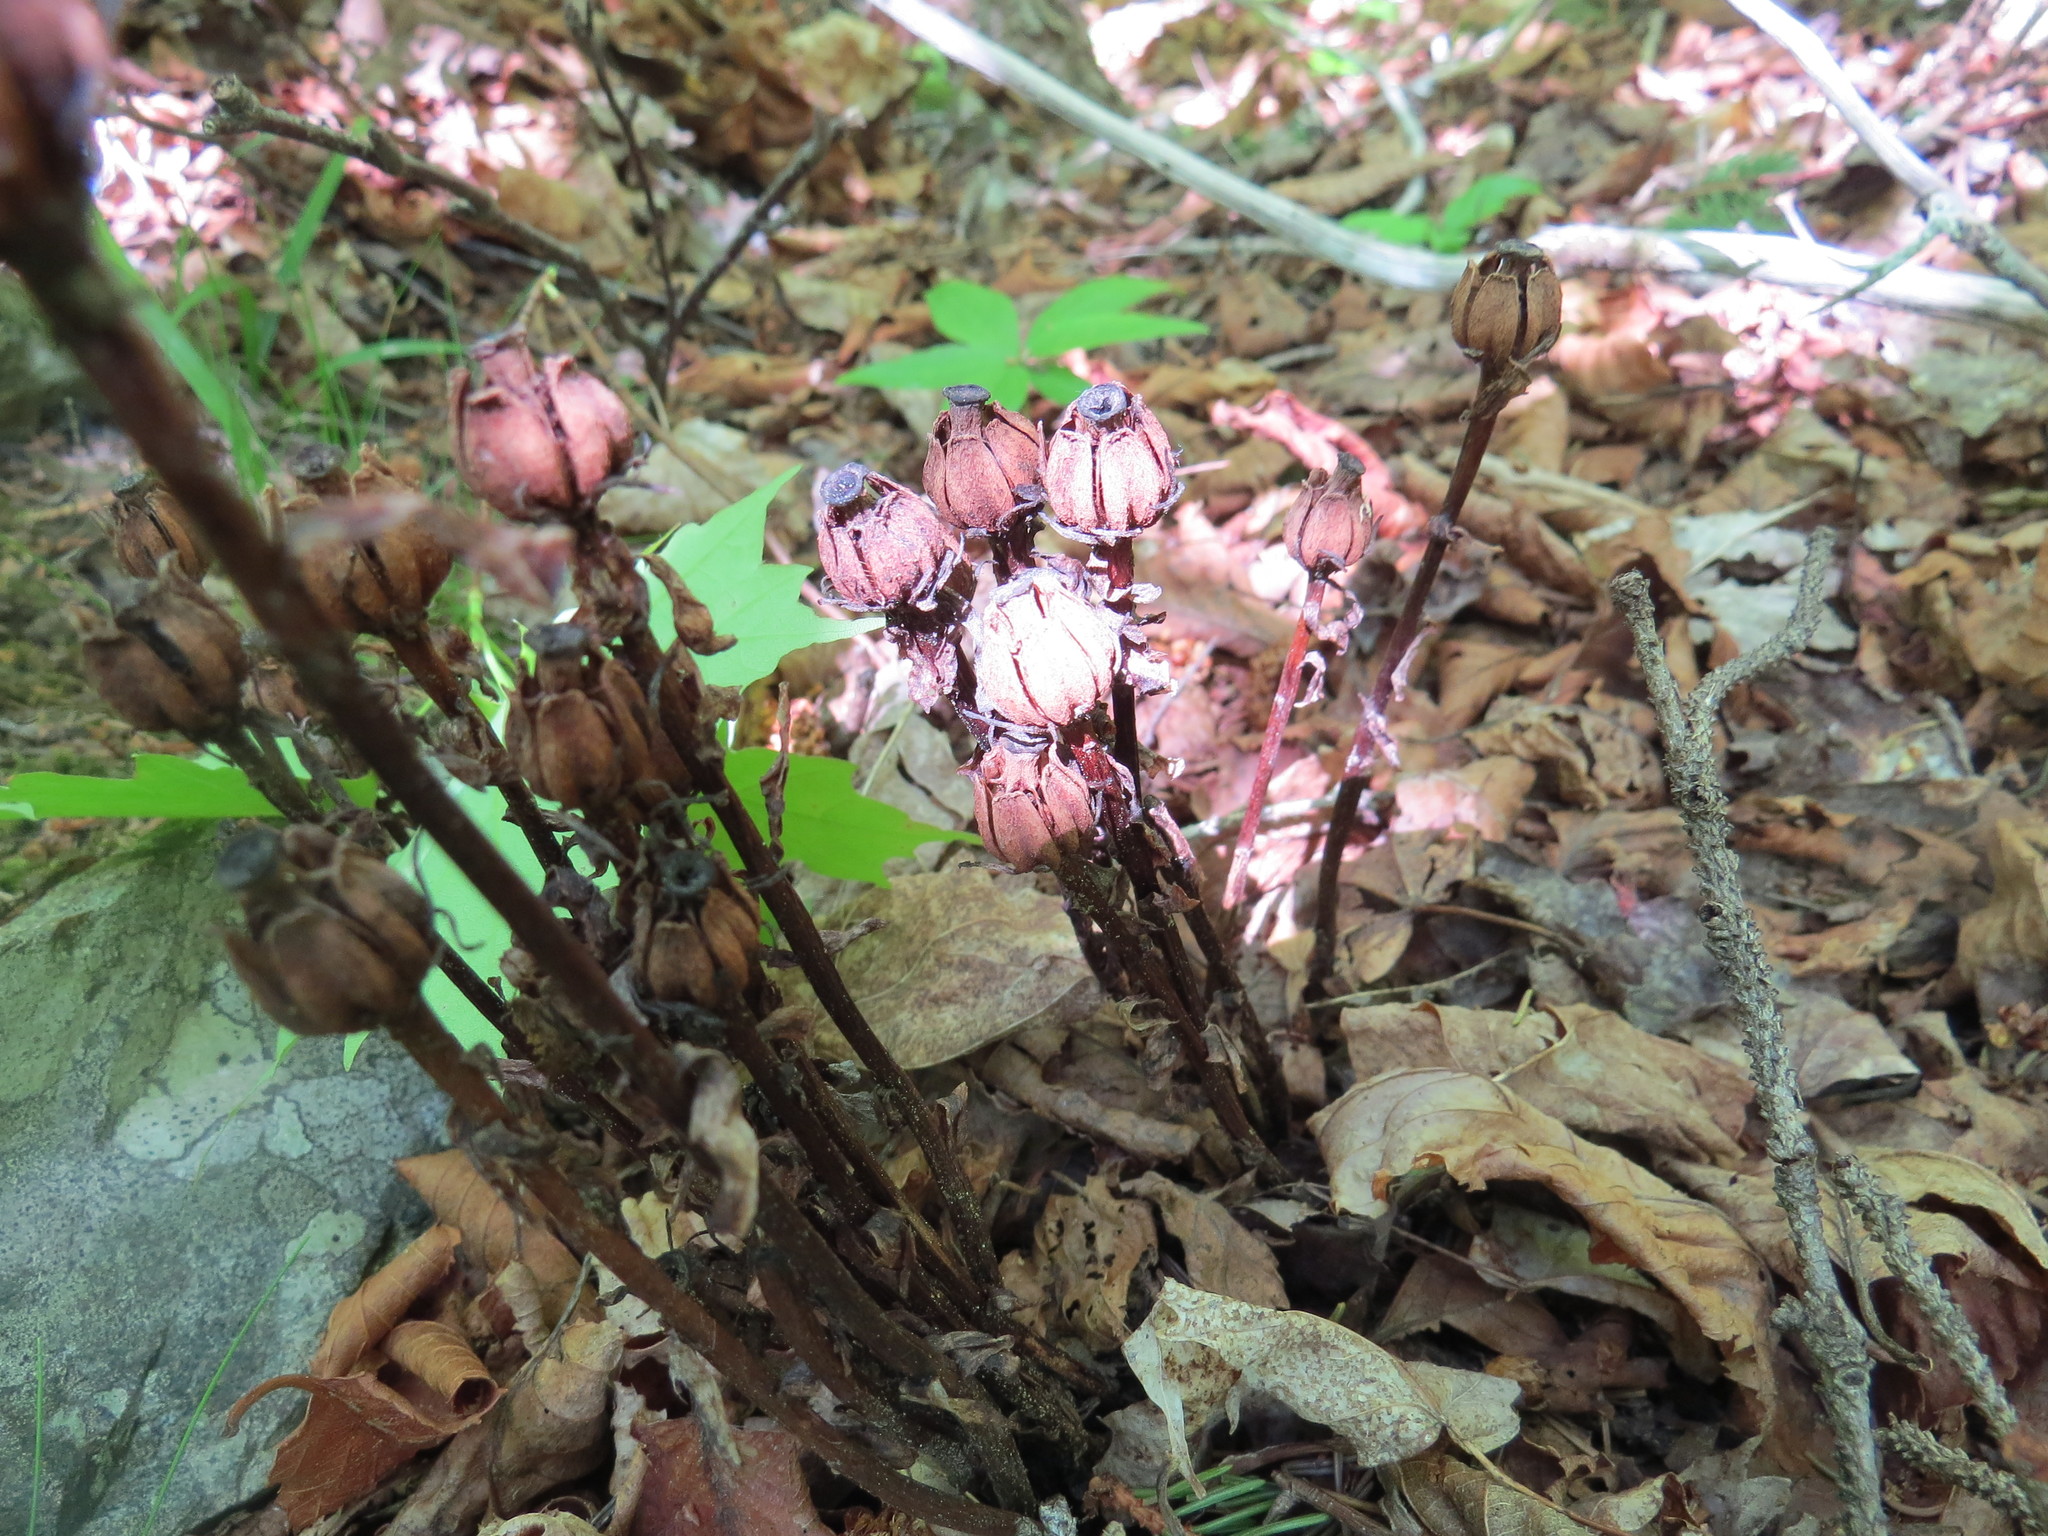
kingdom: Plantae
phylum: Tracheophyta
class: Magnoliopsida
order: Ericales
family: Ericaceae
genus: Monotropa
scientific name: Monotropa uniflora
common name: Convulsion root
